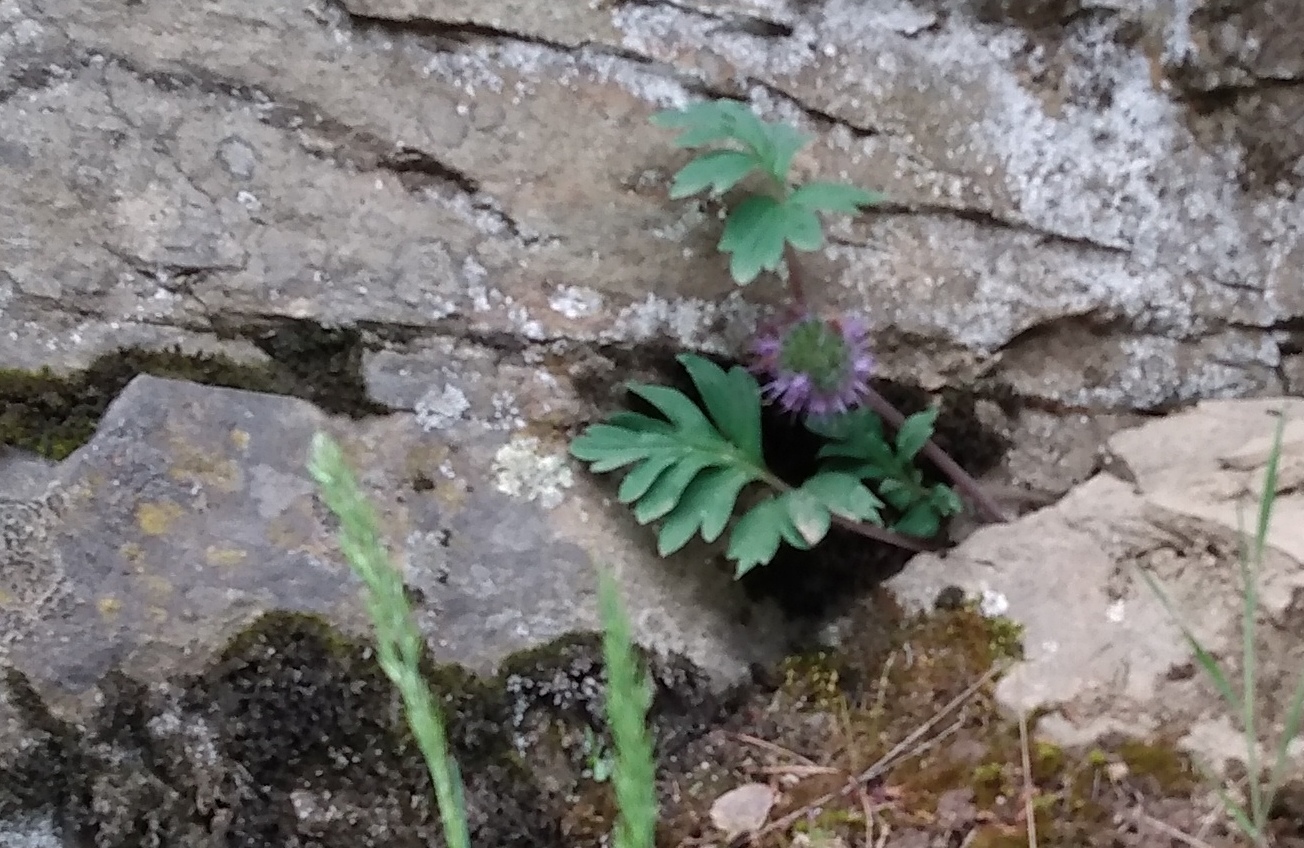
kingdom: Plantae
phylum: Tracheophyta
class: Magnoliopsida
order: Boraginales
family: Hydrophyllaceae
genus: Hydrophyllum
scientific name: Hydrophyllum capitatum
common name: Woollen-breeches
